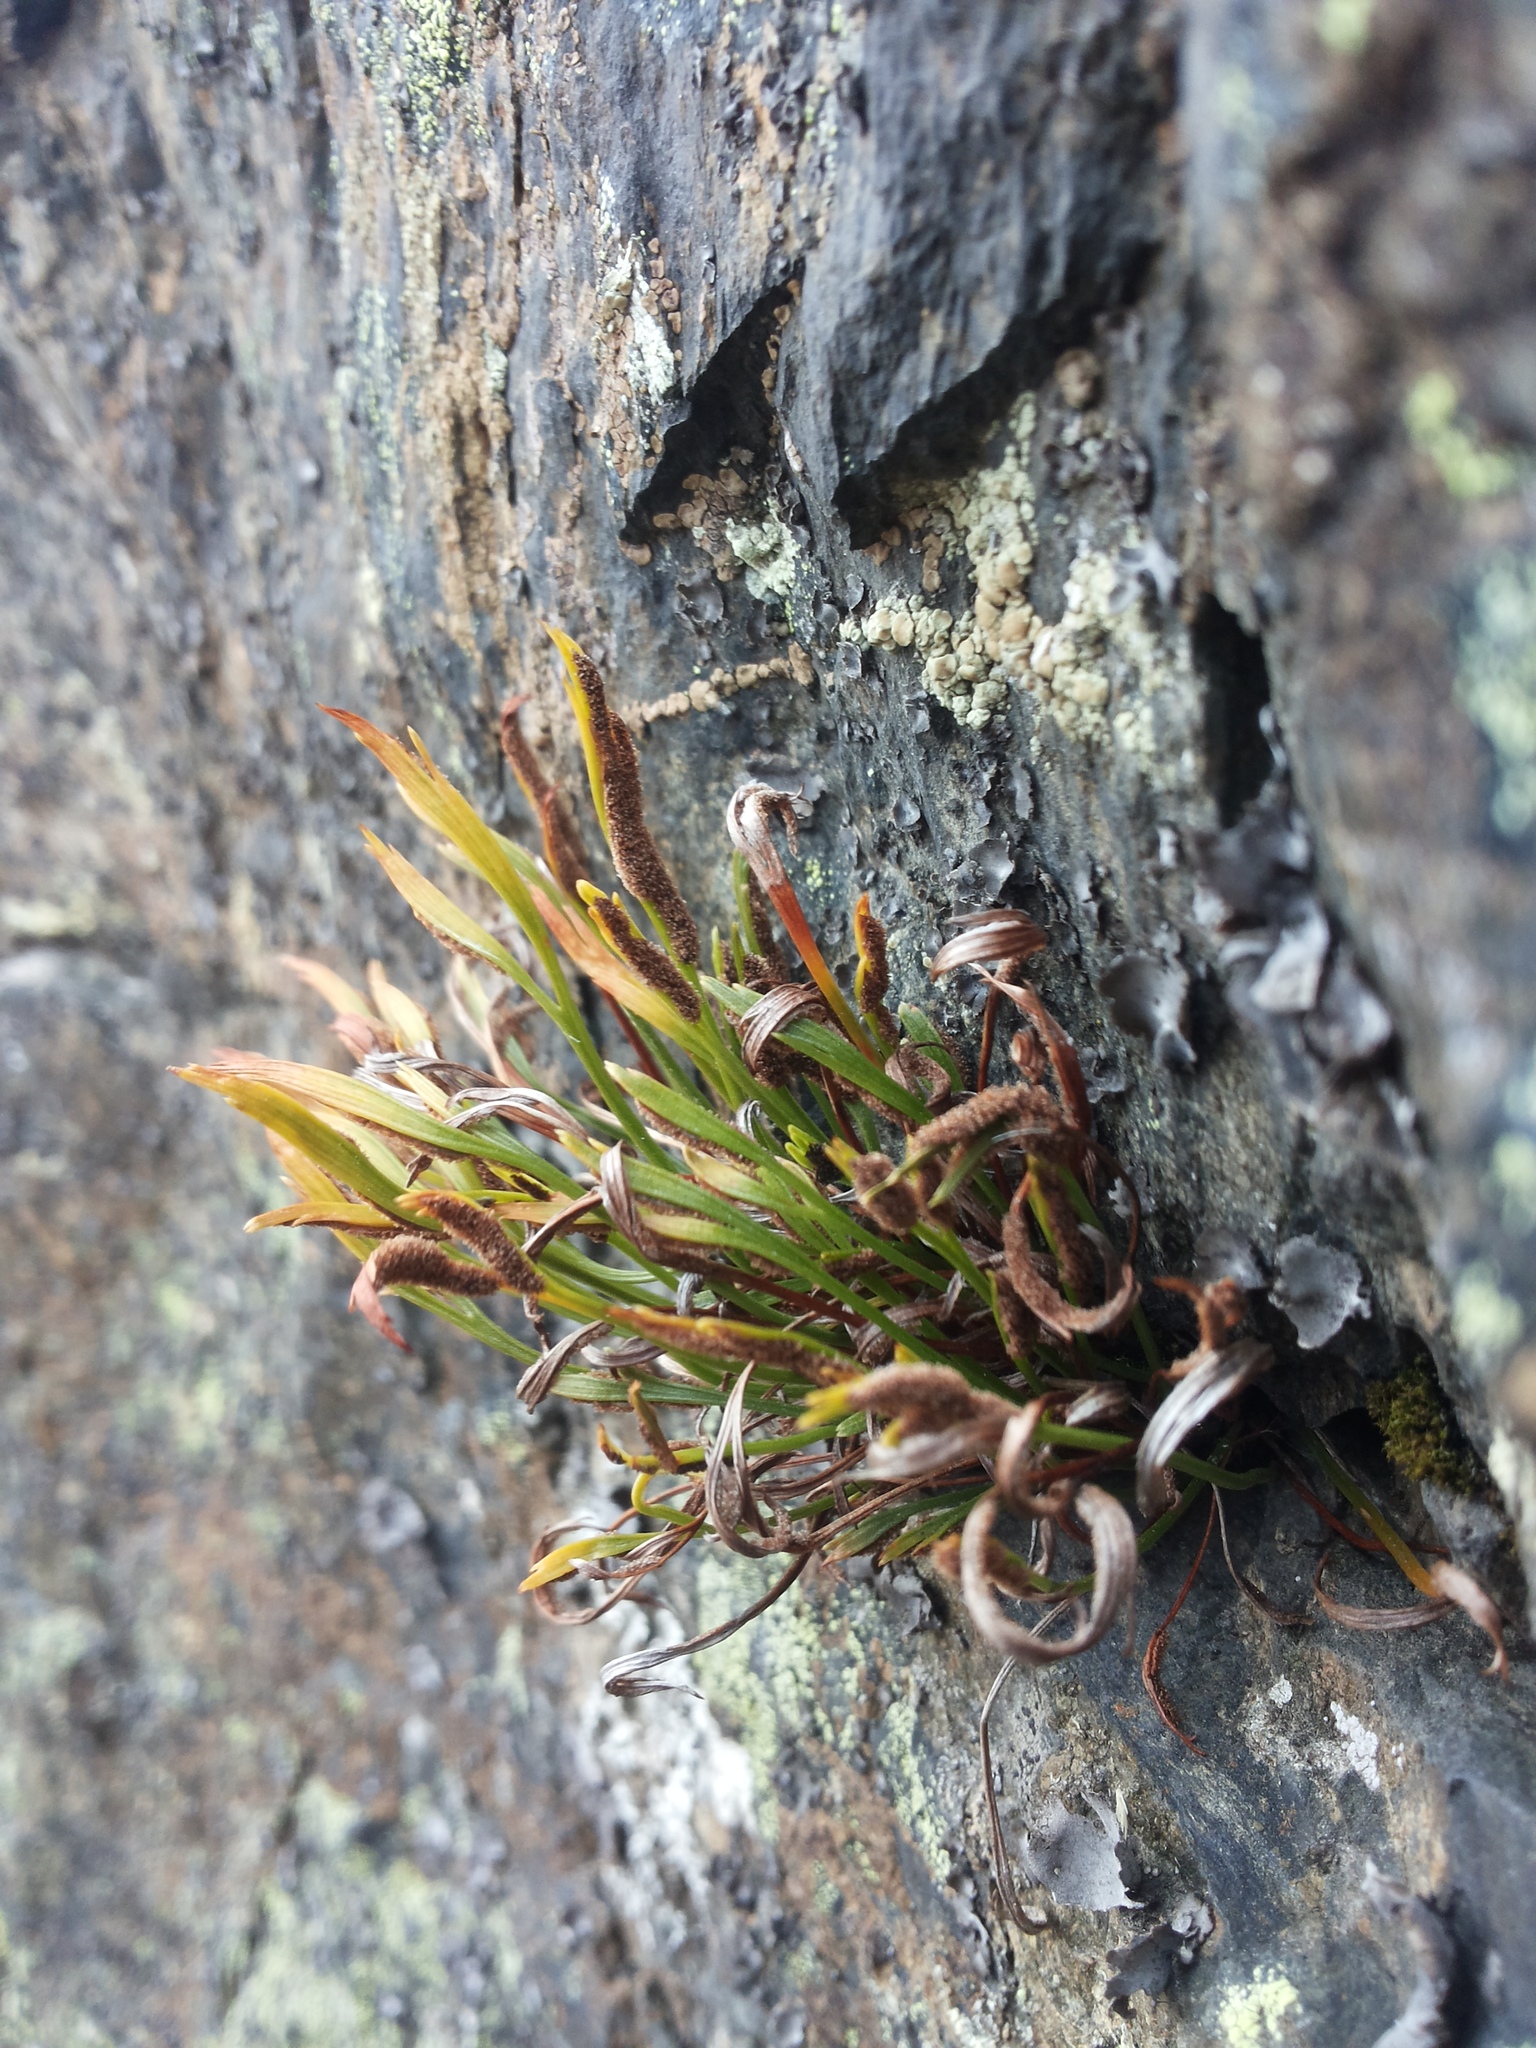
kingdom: Plantae
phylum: Tracheophyta
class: Polypodiopsida
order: Polypodiales
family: Aspleniaceae
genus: Asplenium
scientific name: Asplenium septentrionale
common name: Forked spleenwort
